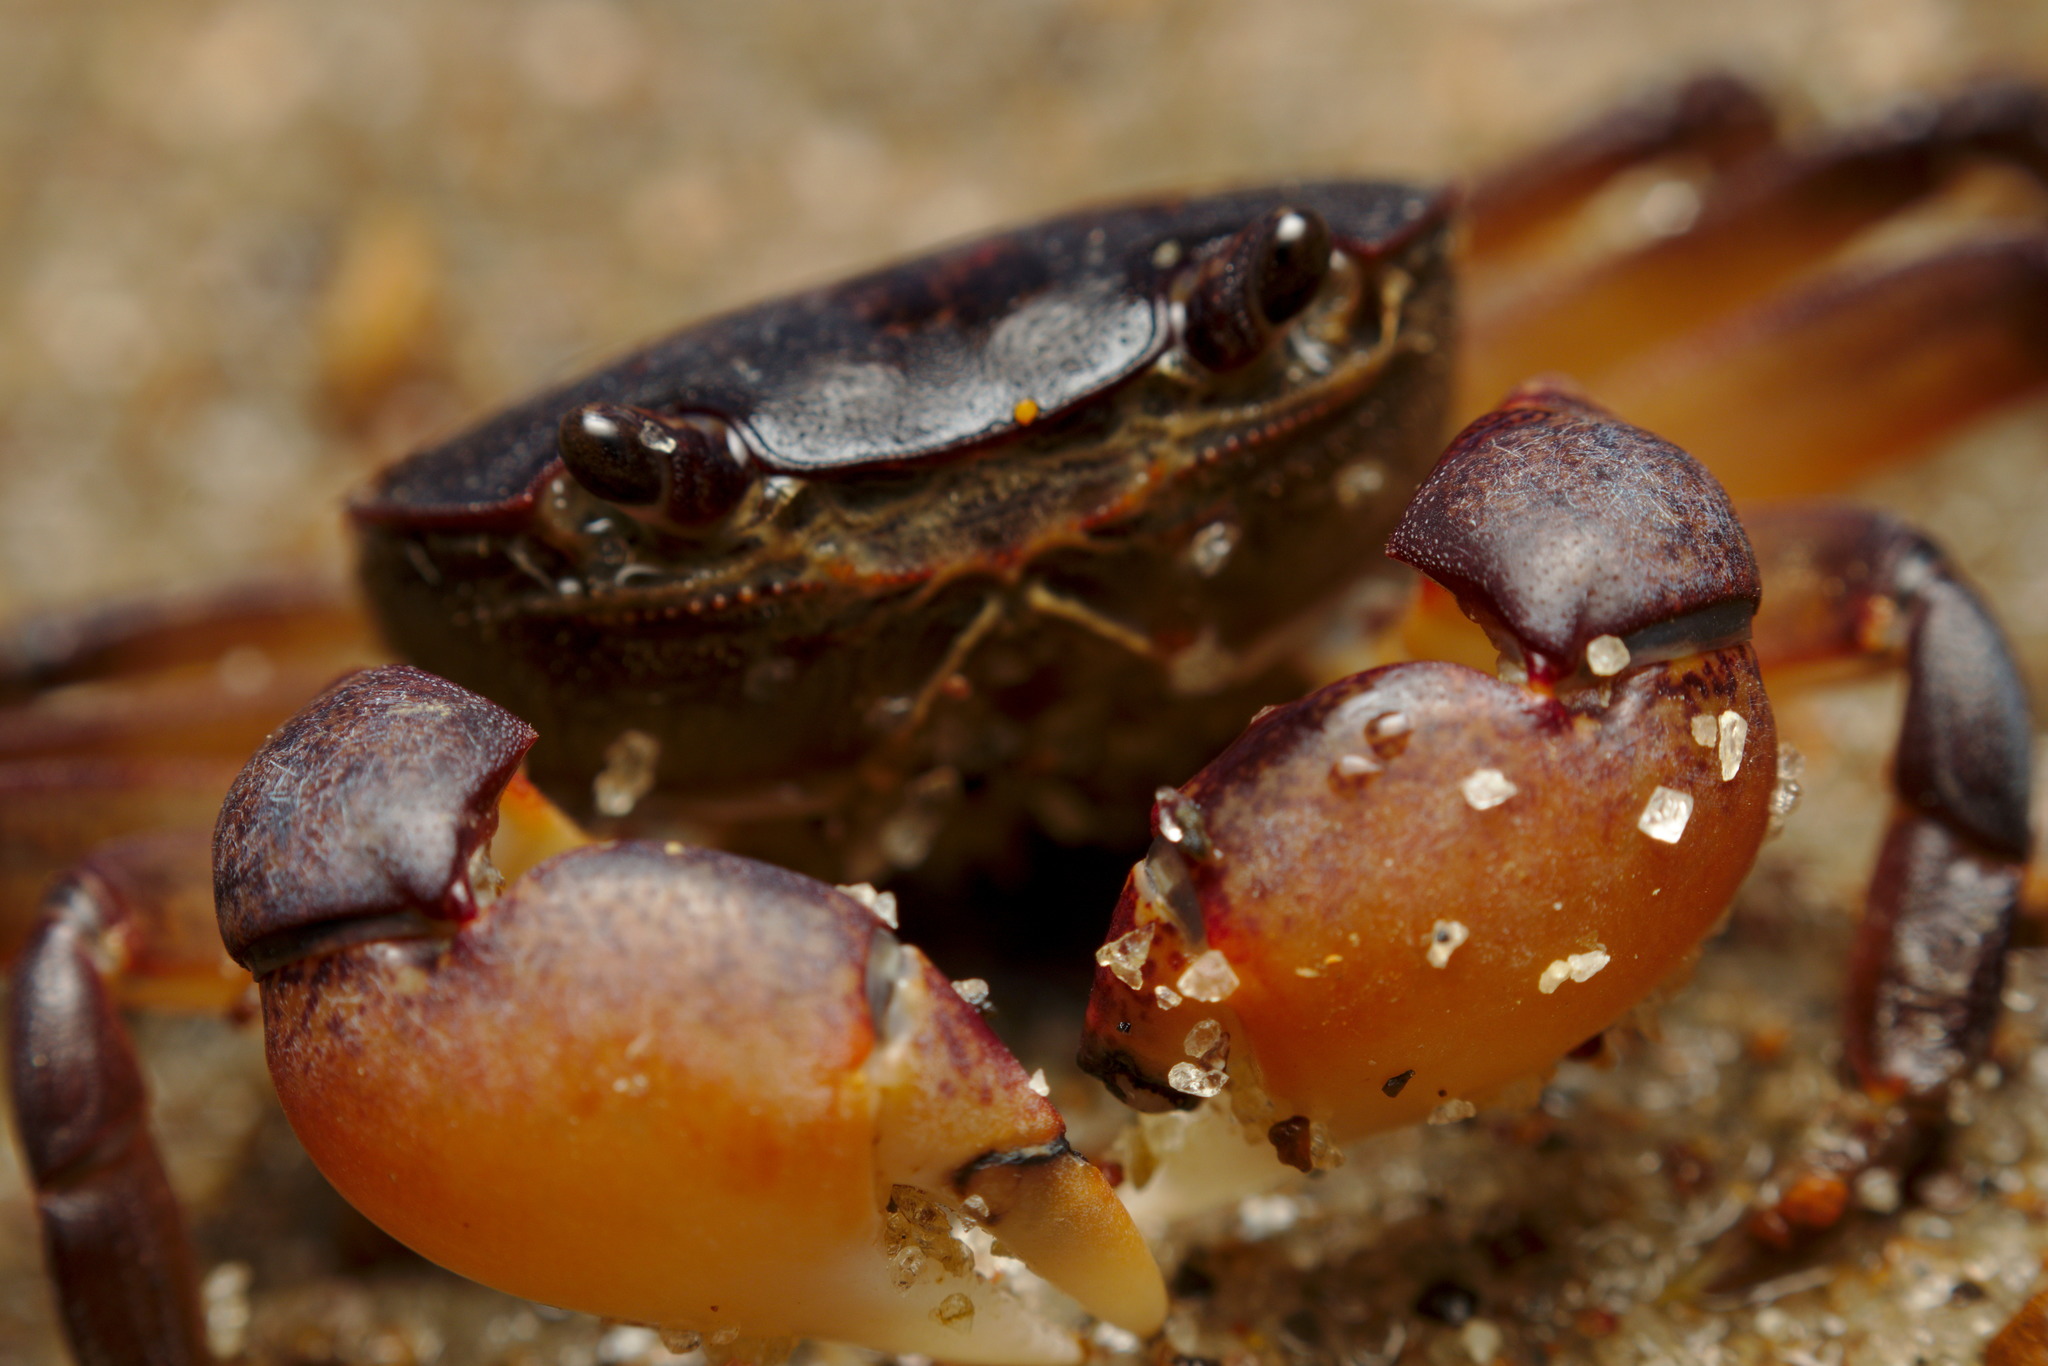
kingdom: Animalia
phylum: Arthropoda
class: Malacostraca
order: Decapoda
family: Varunidae
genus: Cyclograpsus
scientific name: Cyclograpsus lavauxi
